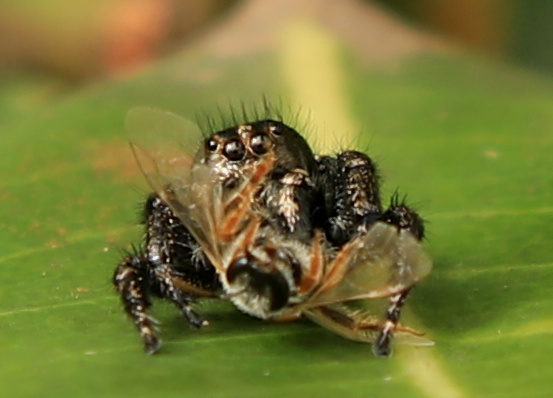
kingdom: Animalia
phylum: Arthropoda
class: Arachnida
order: Araneae
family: Salticidae
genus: Baryphas
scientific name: Baryphas ahenus
